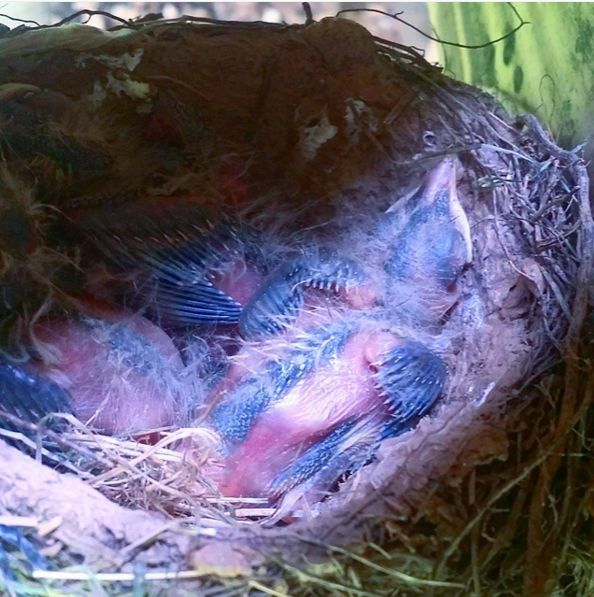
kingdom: Animalia
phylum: Chordata
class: Aves
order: Passeriformes
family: Turdidae
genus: Turdus
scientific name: Turdus migratorius
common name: American robin
